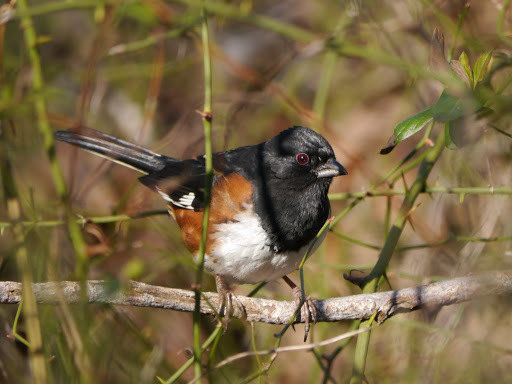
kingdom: Animalia
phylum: Chordata
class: Aves
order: Passeriformes
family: Passerellidae
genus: Pipilo
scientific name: Pipilo erythrophthalmus
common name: Eastern towhee
